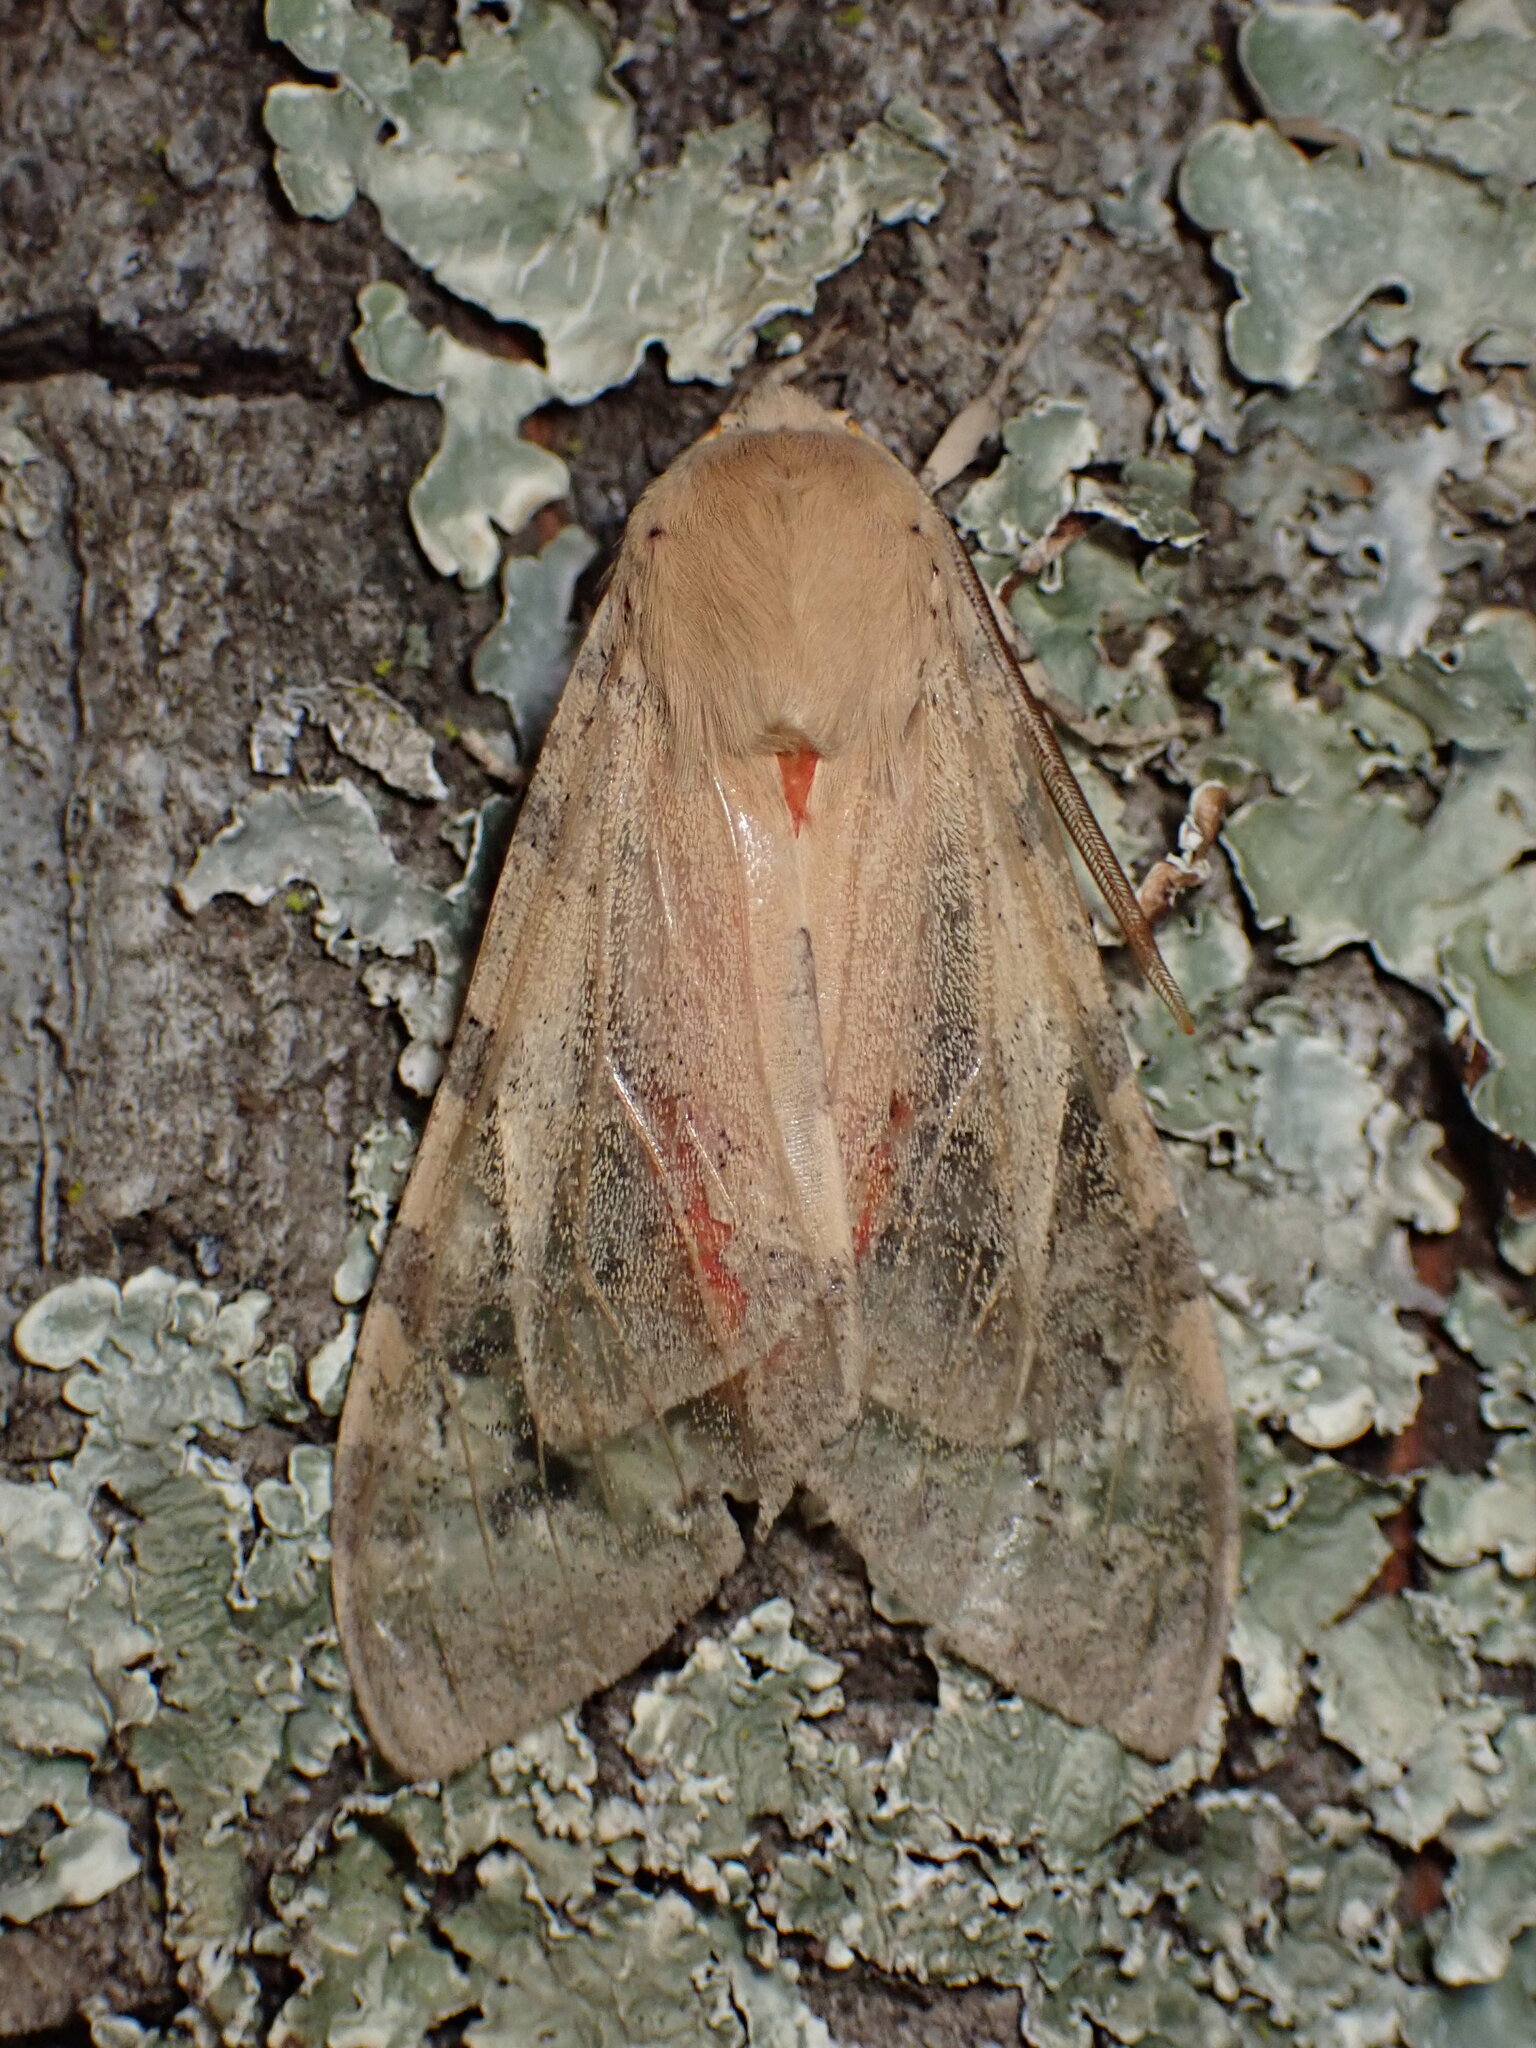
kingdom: Animalia
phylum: Arthropoda
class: Insecta
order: Lepidoptera
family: Erebidae
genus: Hemihyalea
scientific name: Hemihyalea edwardsii
